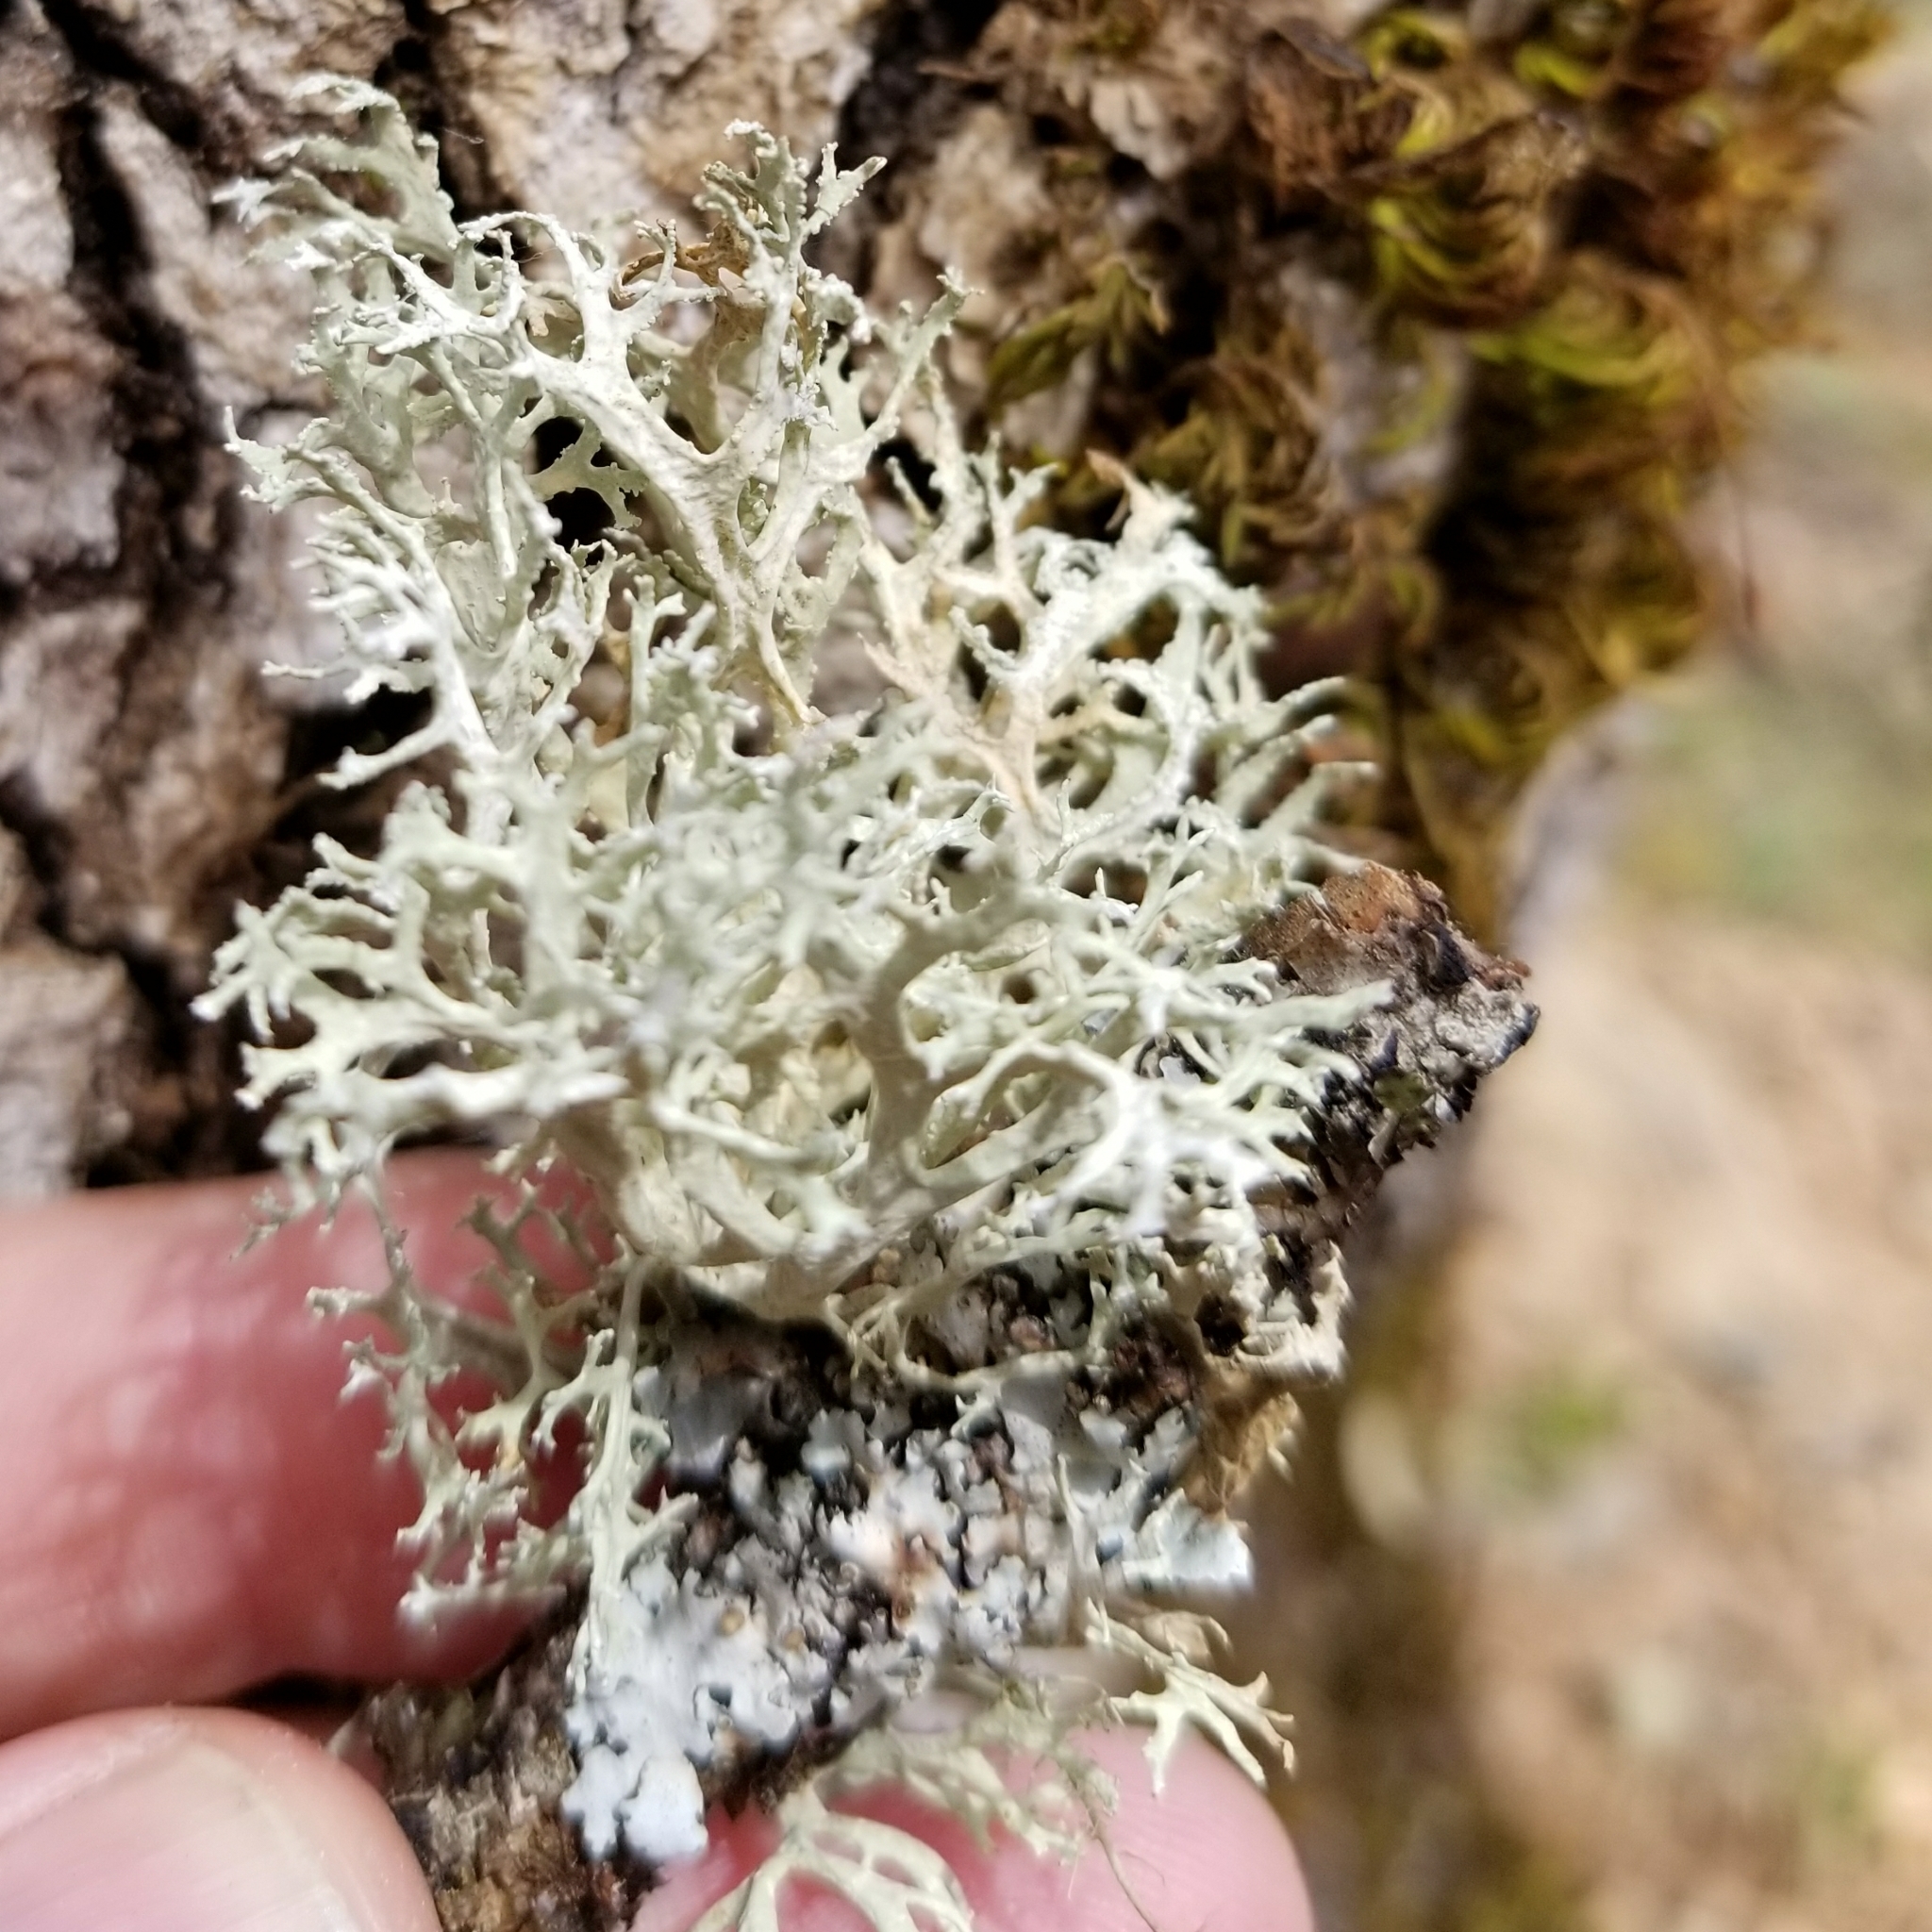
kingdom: Fungi
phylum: Ascomycota
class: Lecanoromycetes
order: Lecanorales
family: Parmeliaceae
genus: Evernia
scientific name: Evernia prunastri
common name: Oak moss
